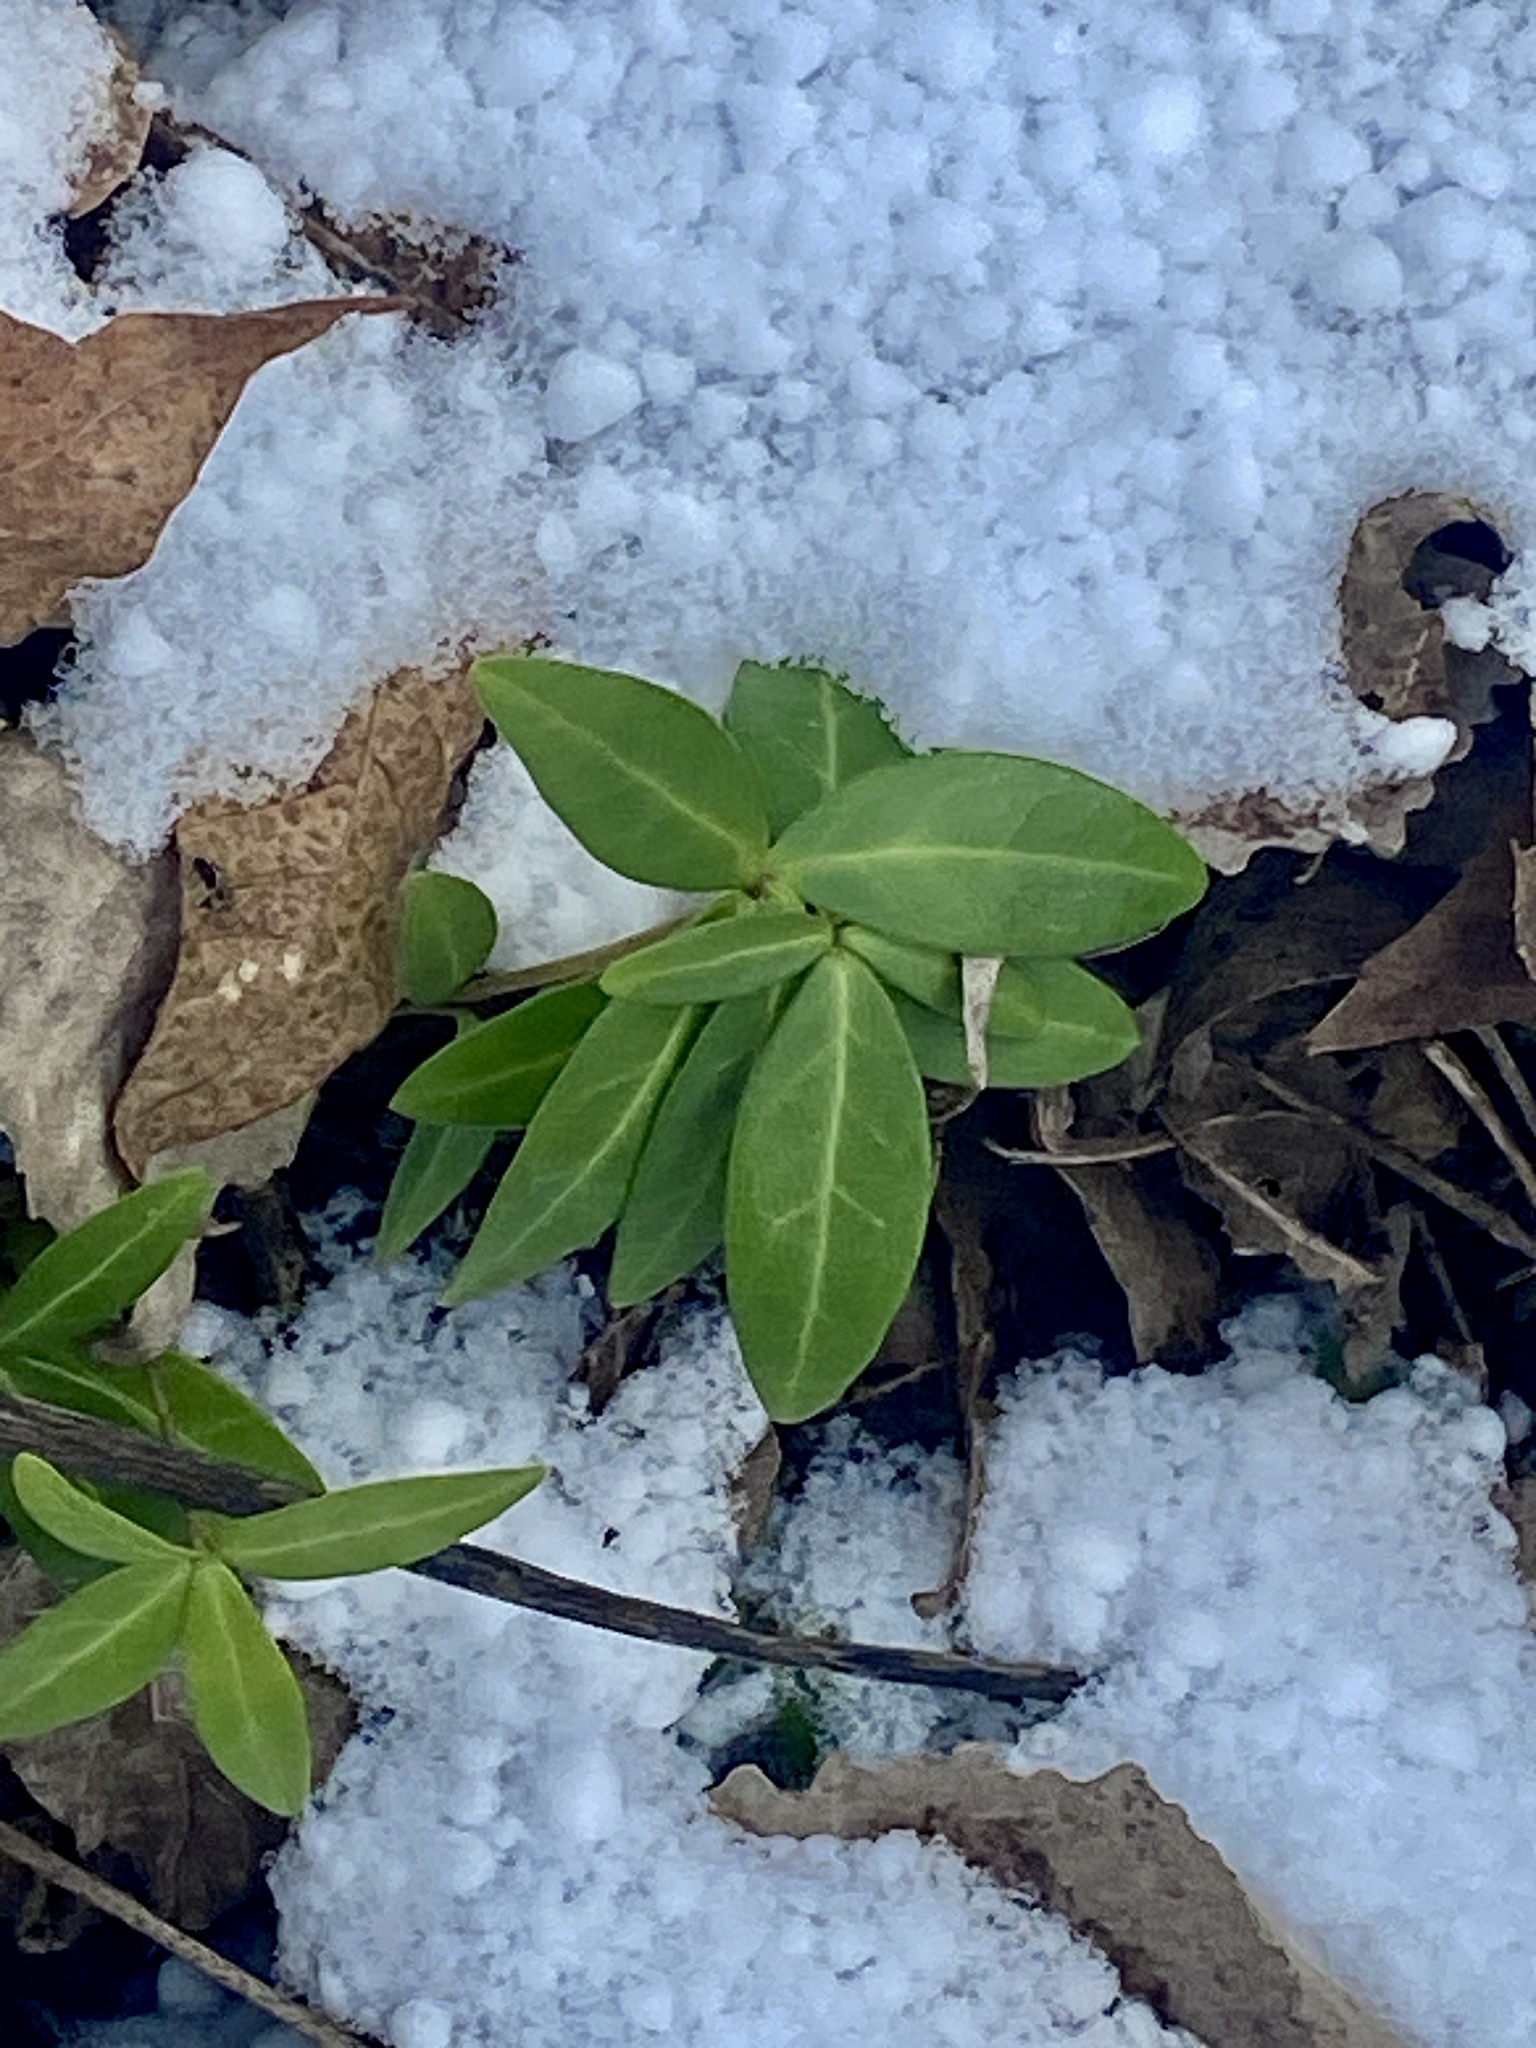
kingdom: Plantae
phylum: Tracheophyta
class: Magnoliopsida
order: Gentianales
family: Apocynaceae
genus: Vinca
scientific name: Vinca minor
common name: Lesser periwinkle
